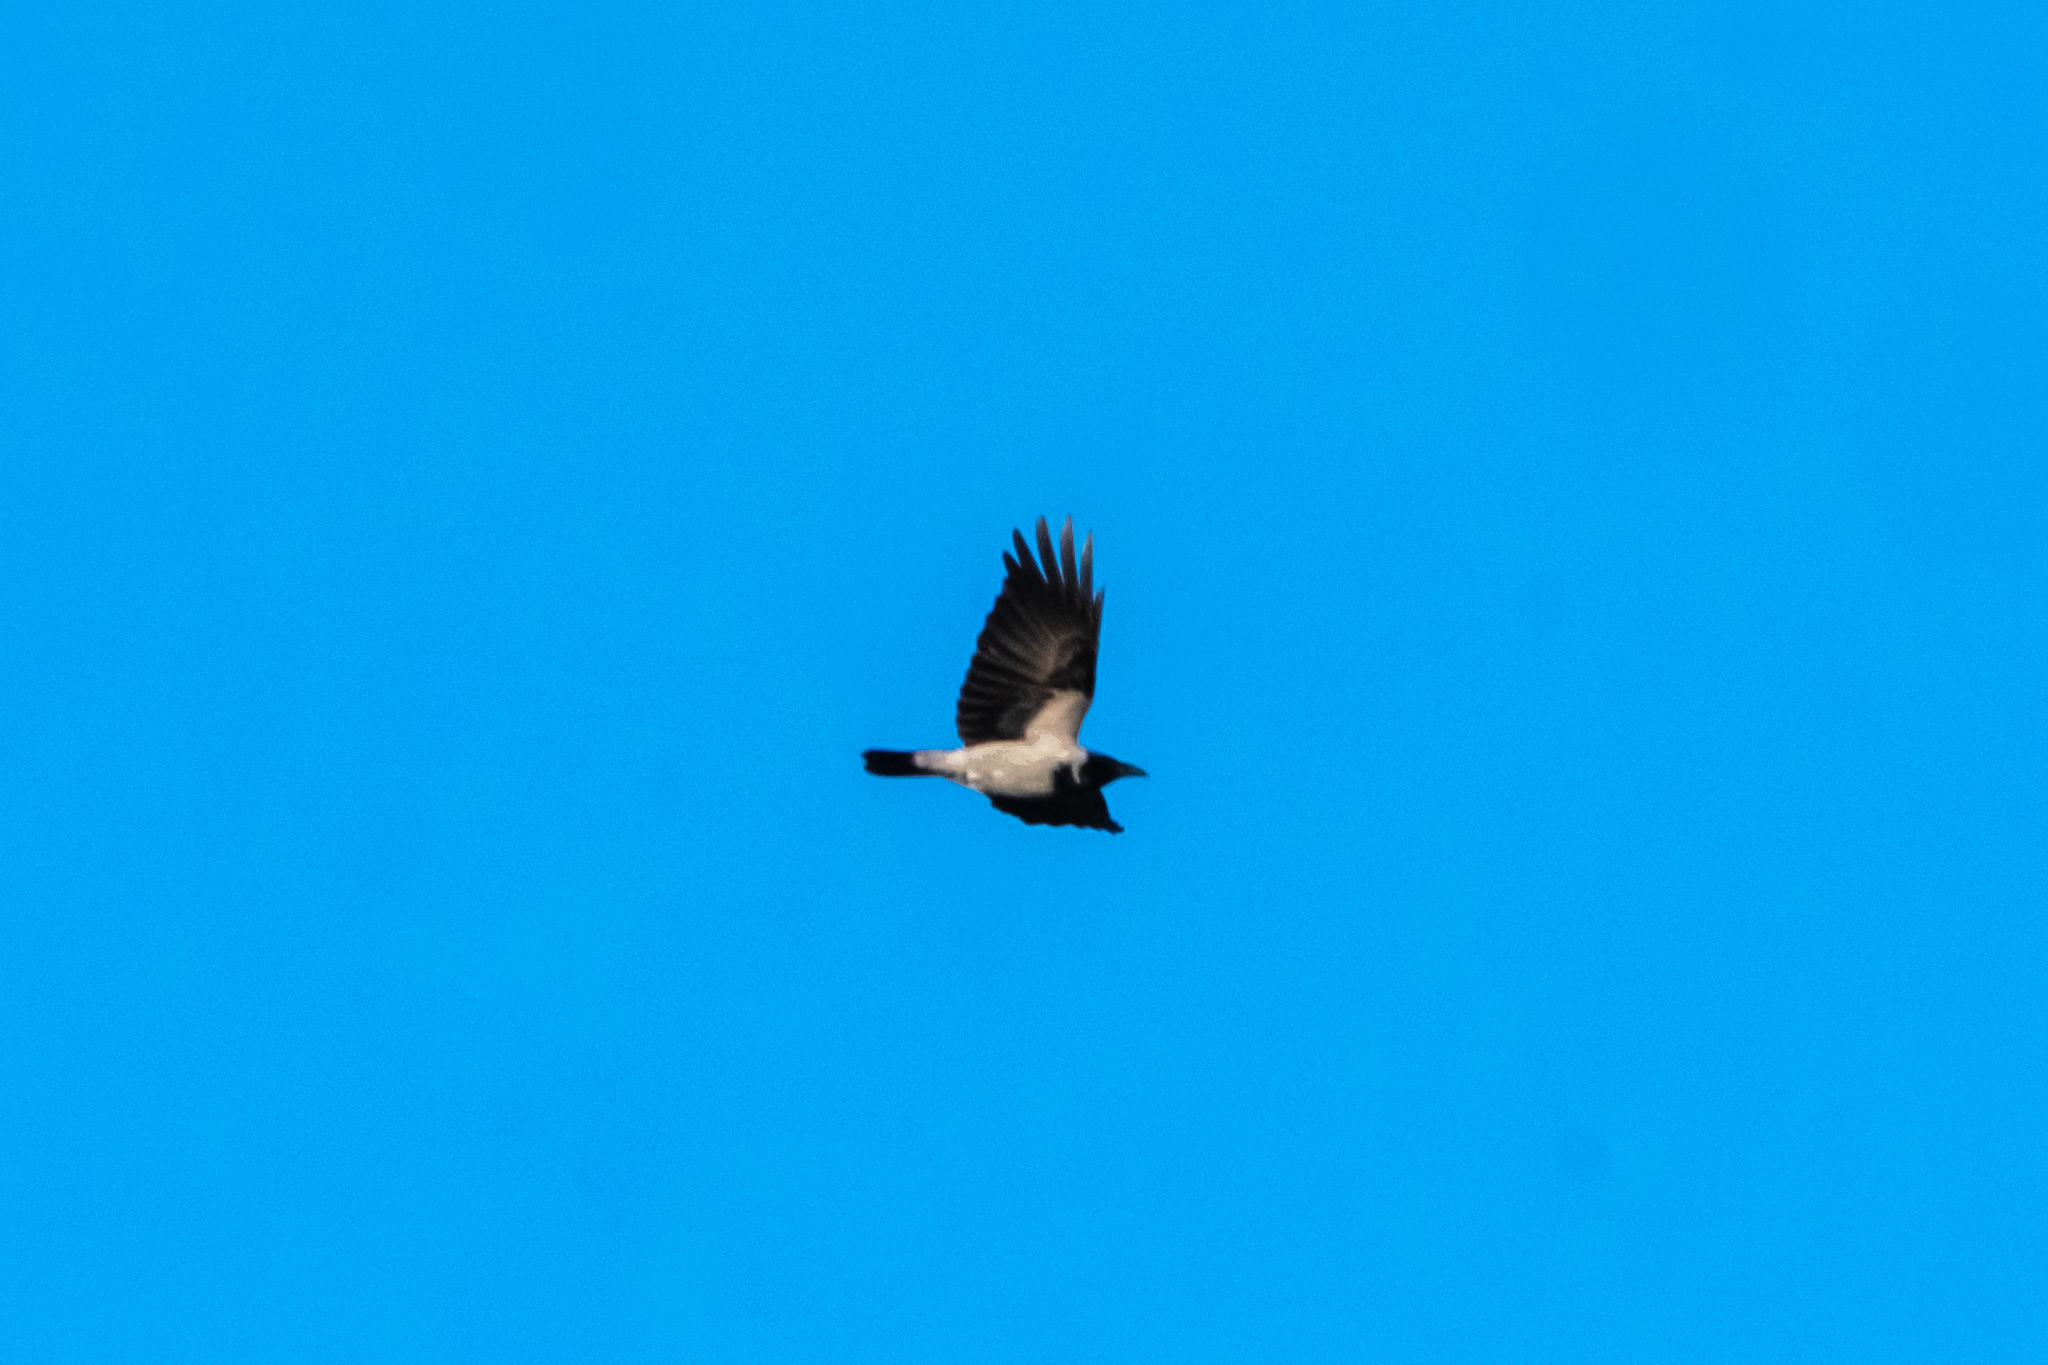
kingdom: Animalia
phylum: Chordata
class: Aves
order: Passeriformes
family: Corvidae
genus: Corvus
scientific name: Corvus cornix
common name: Hooded crow
